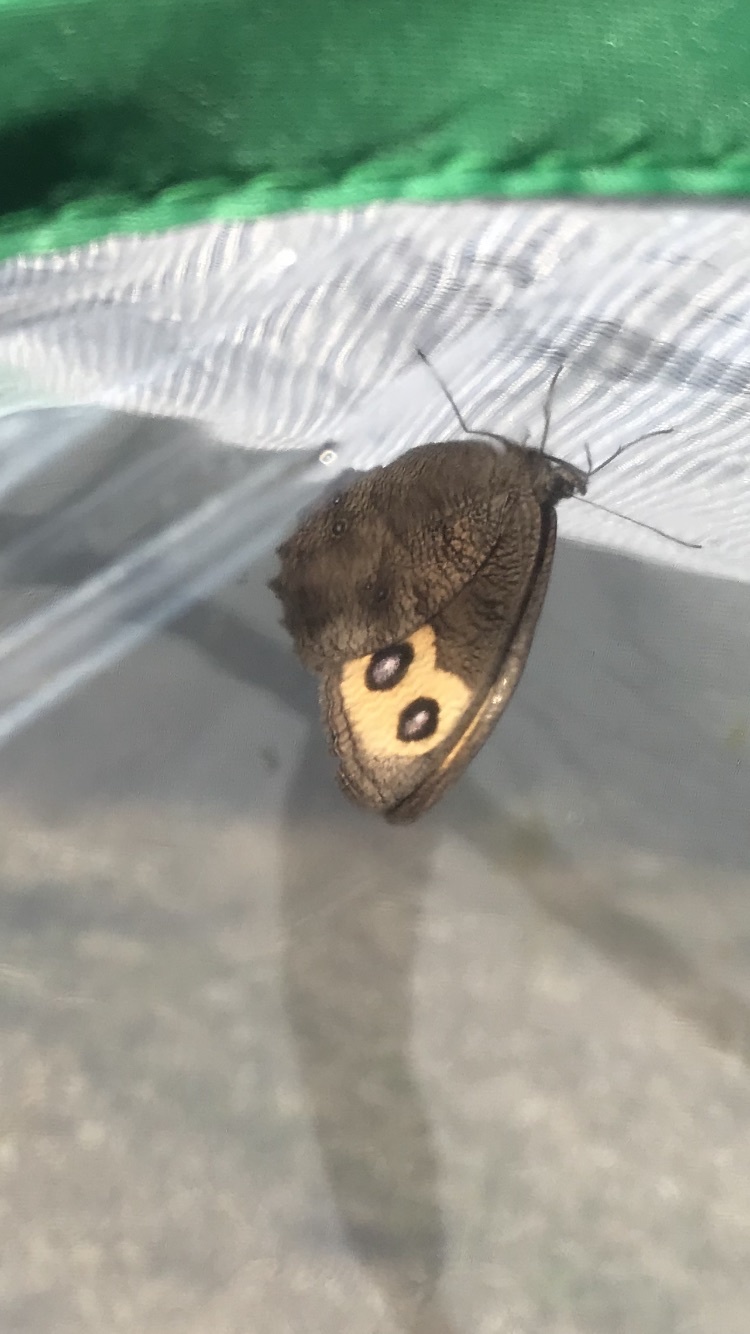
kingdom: Animalia
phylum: Arthropoda
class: Insecta
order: Lepidoptera
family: Nymphalidae
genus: Cercyonis
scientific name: Cercyonis pegala
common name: Common wood-nymph
